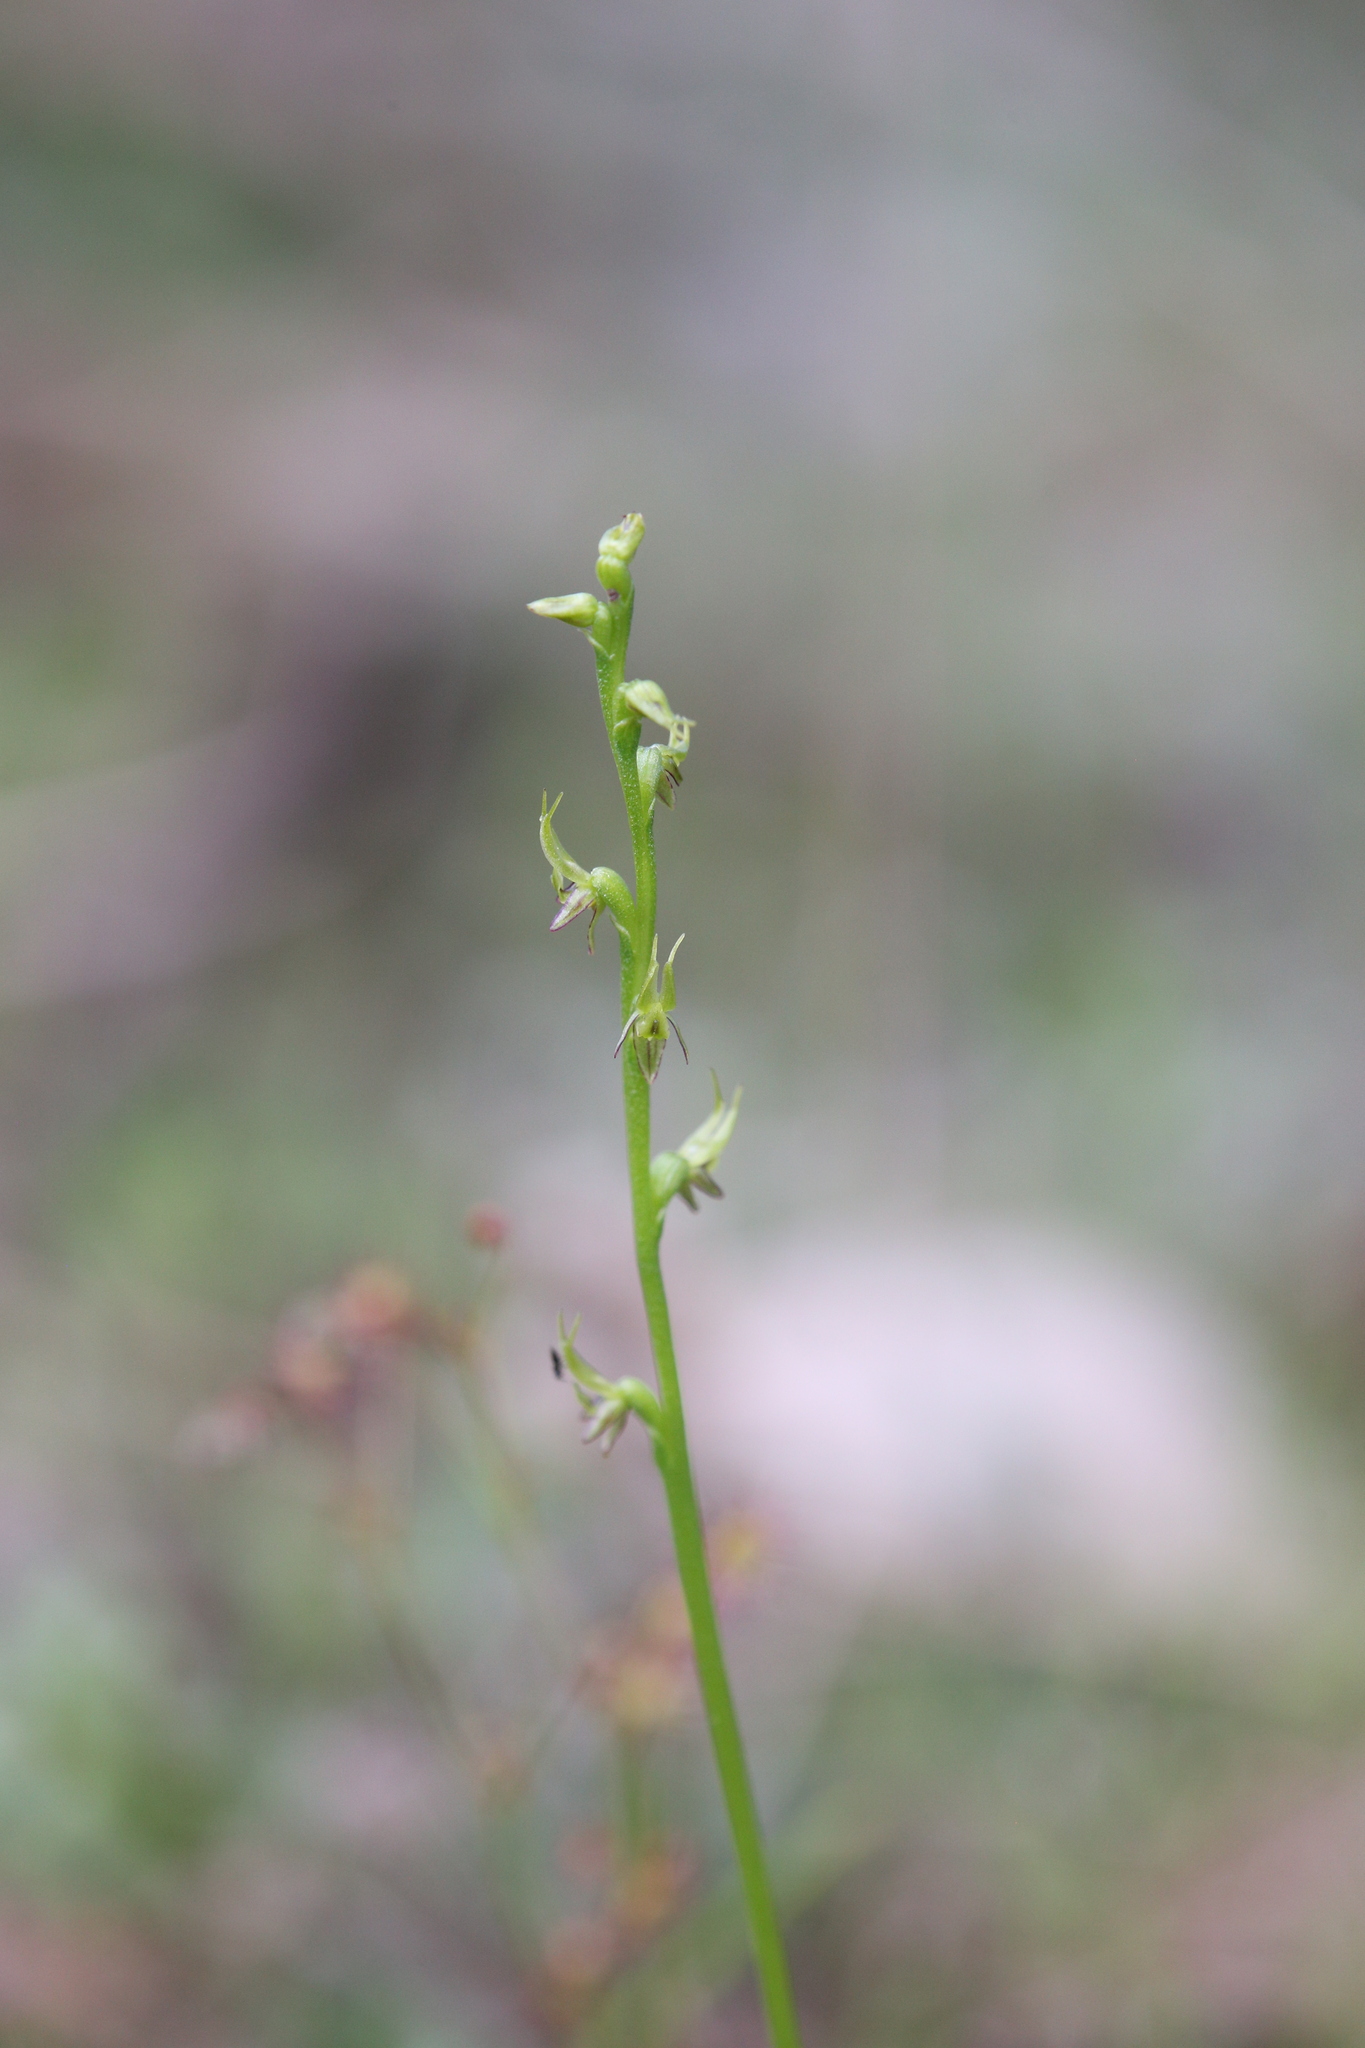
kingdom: Plantae
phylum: Tracheophyta
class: Liliopsida
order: Asparagales
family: Orchidaceae
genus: Prasophyllum
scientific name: Prasophyllum gracile
